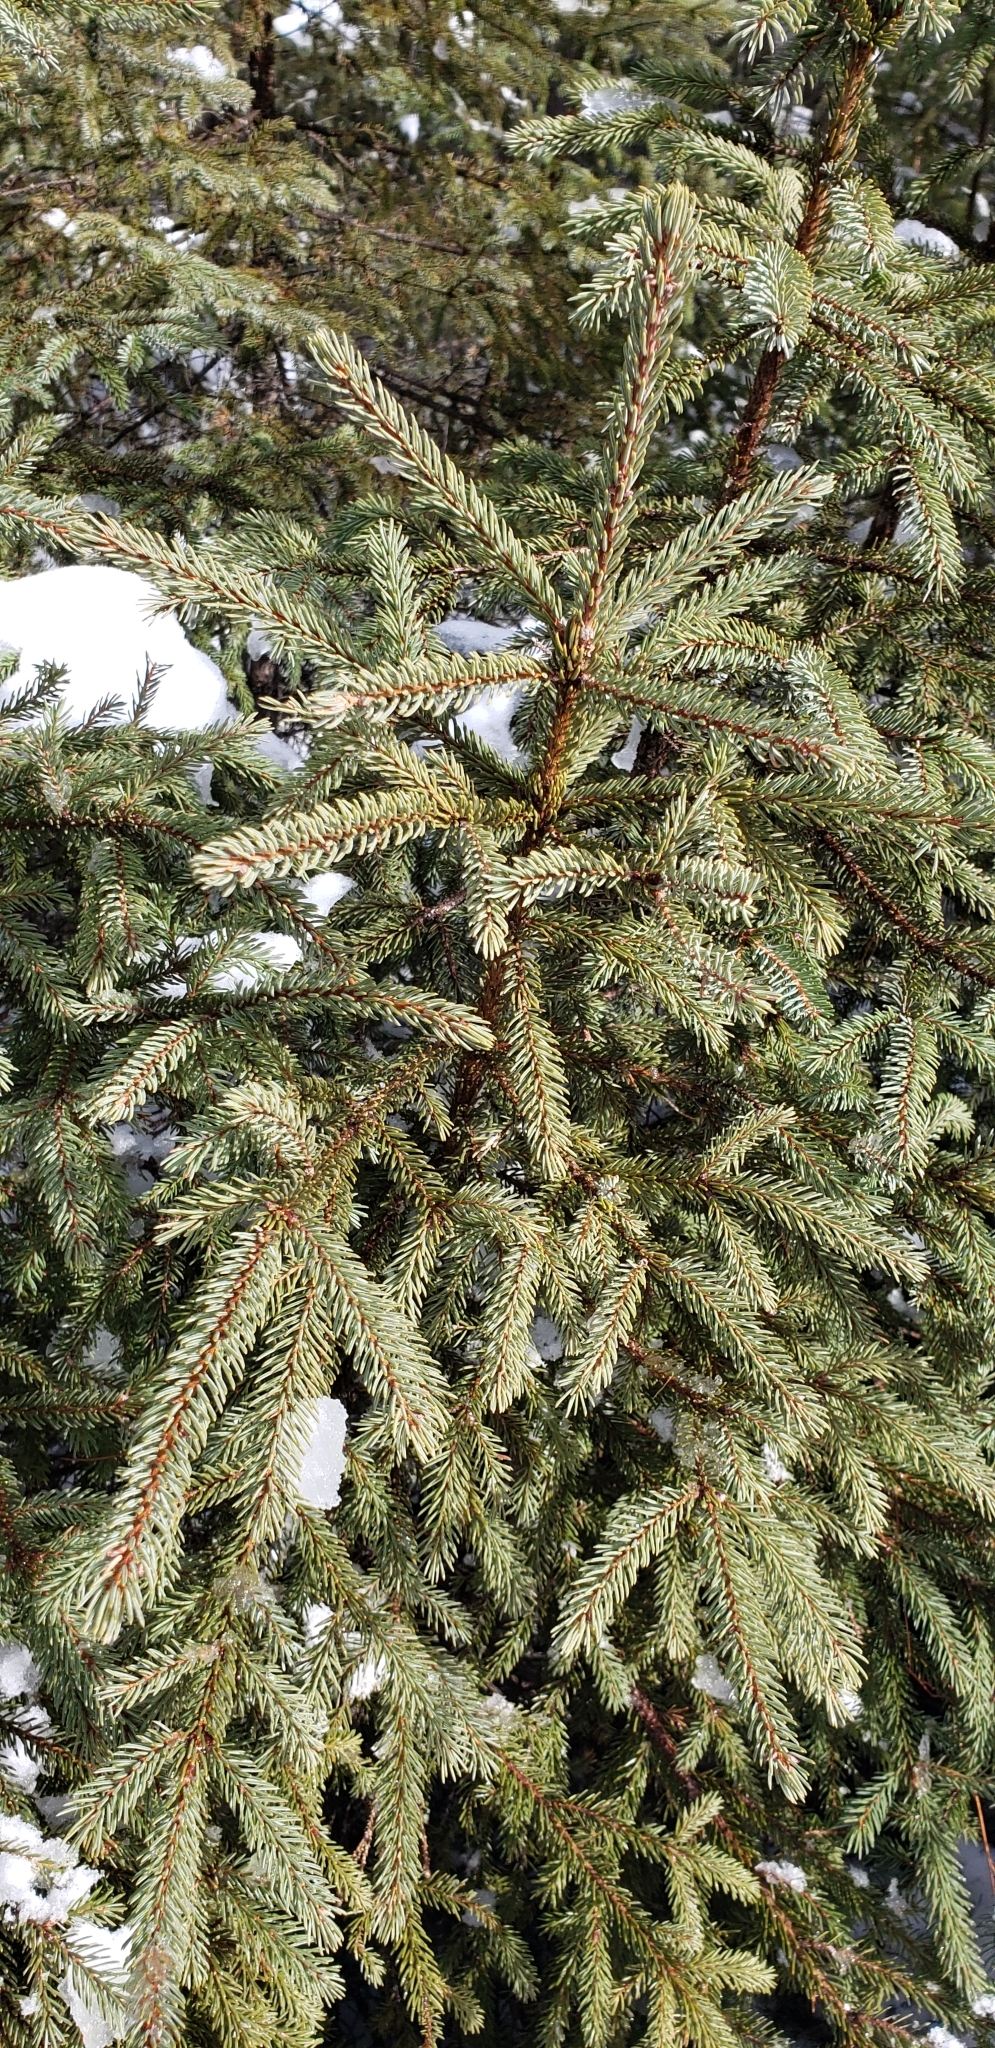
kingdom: Plantae
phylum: Tracheophyta
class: Pinopsida
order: Pinales
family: Pinaceae
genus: Picea
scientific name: Picea mariana
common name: Black spruce
